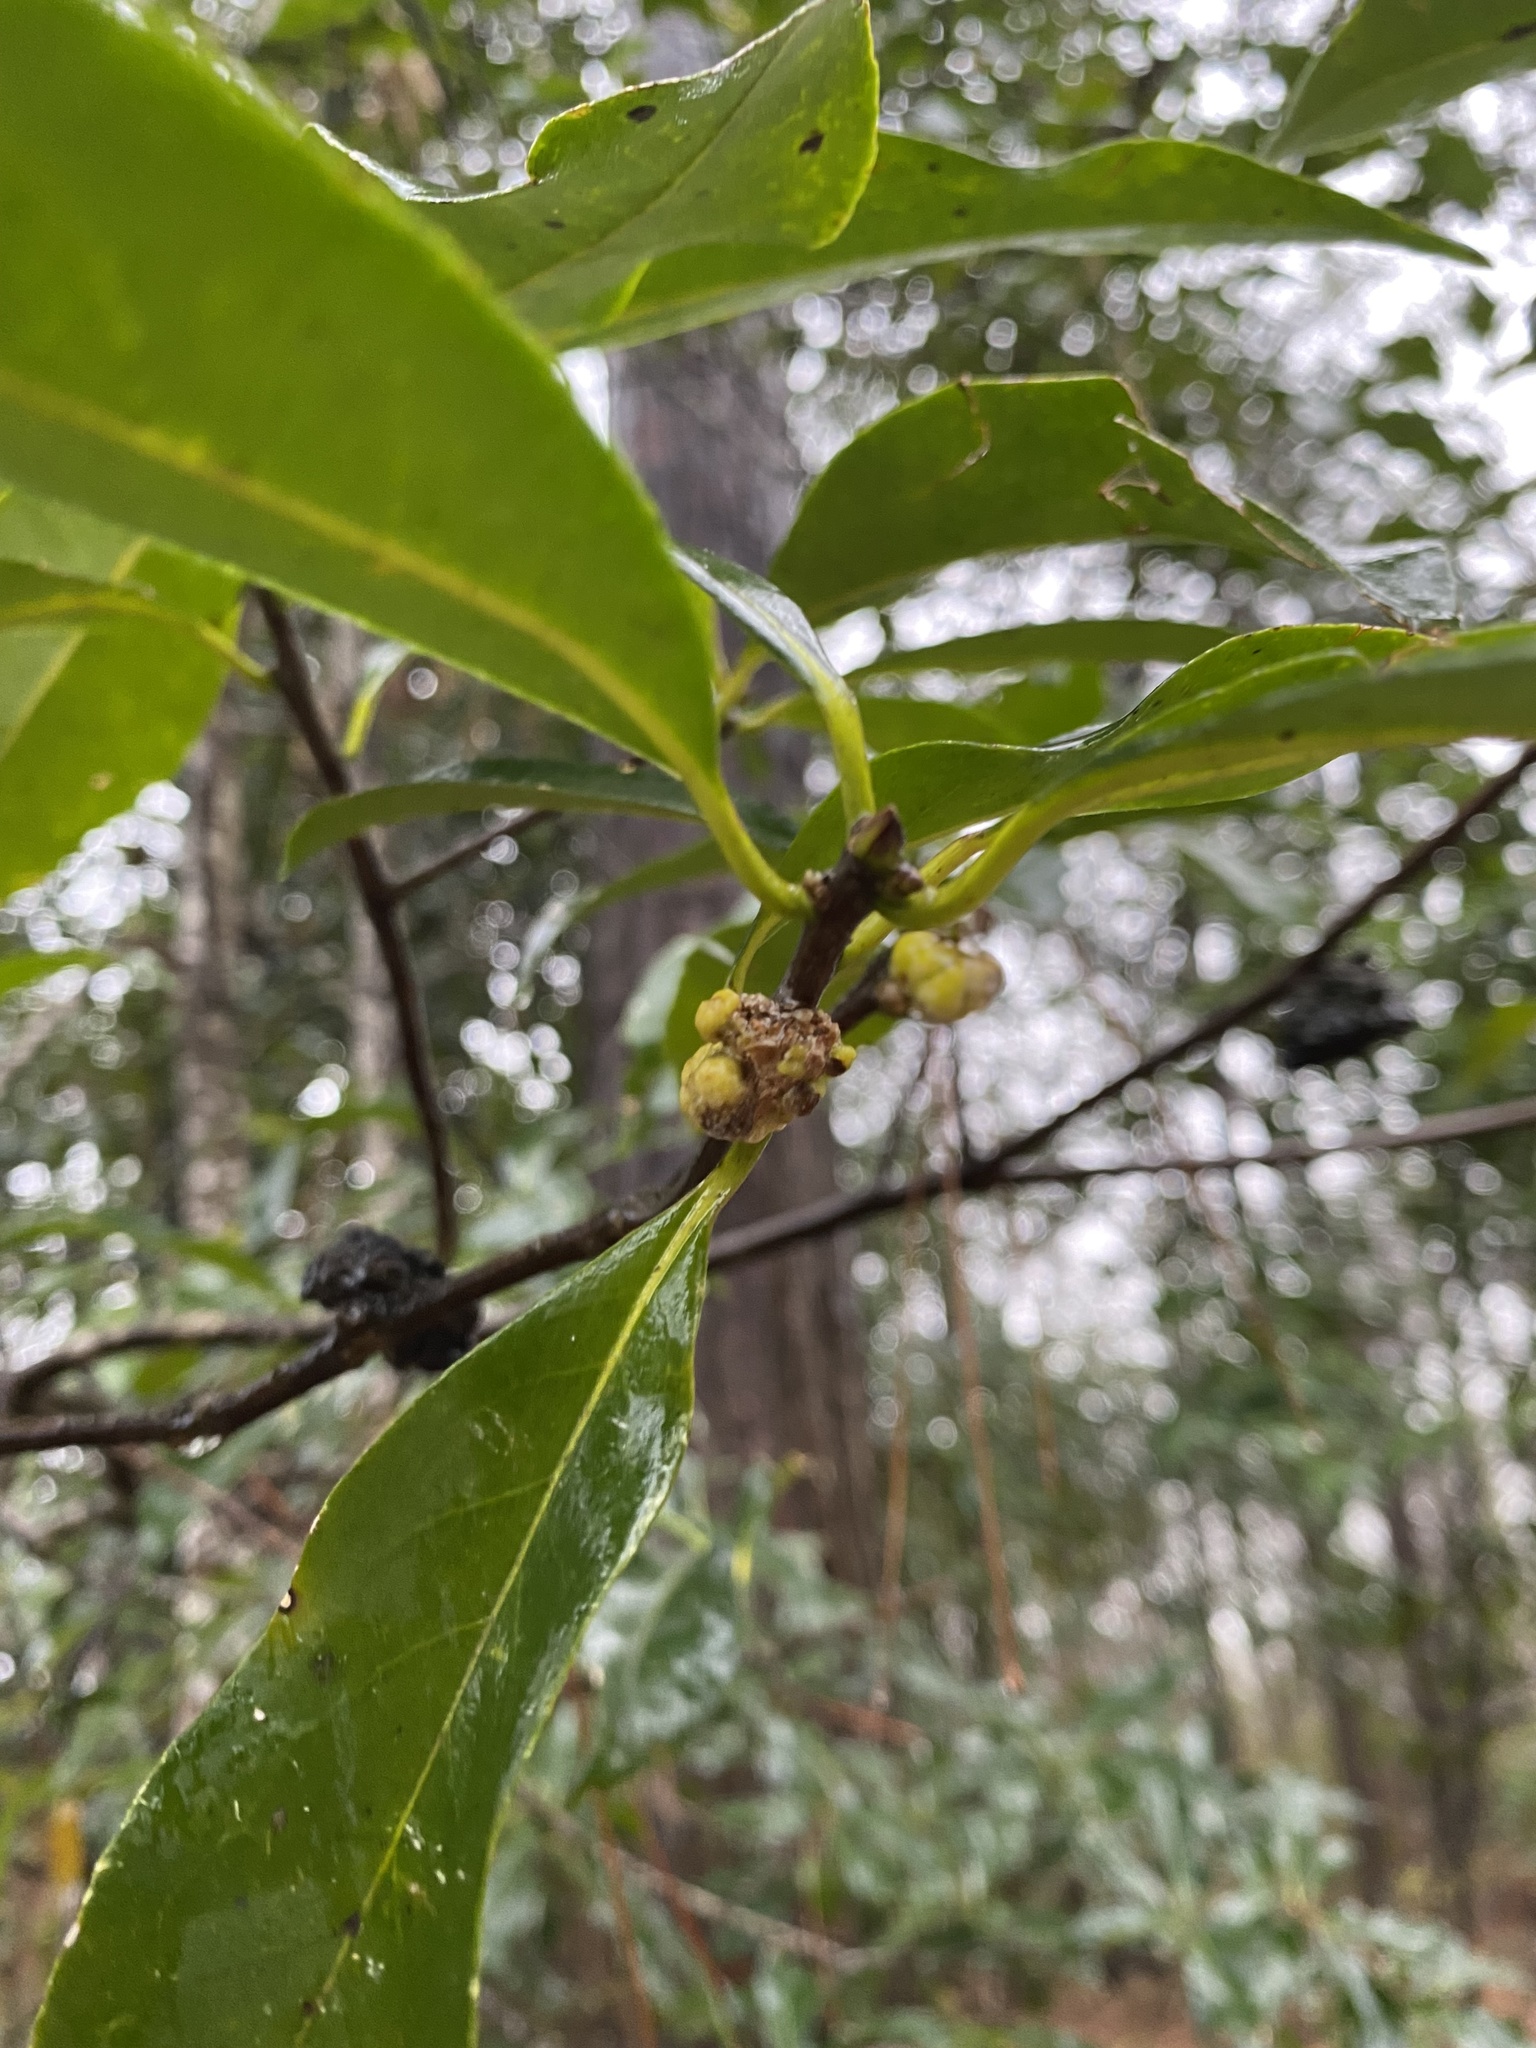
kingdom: Fungi
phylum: Basidiomycota
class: Exobasidiomycetes
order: Exobasidiales
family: Exobasidiaceae
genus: Exobasidium
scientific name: Exobasidium symploci
